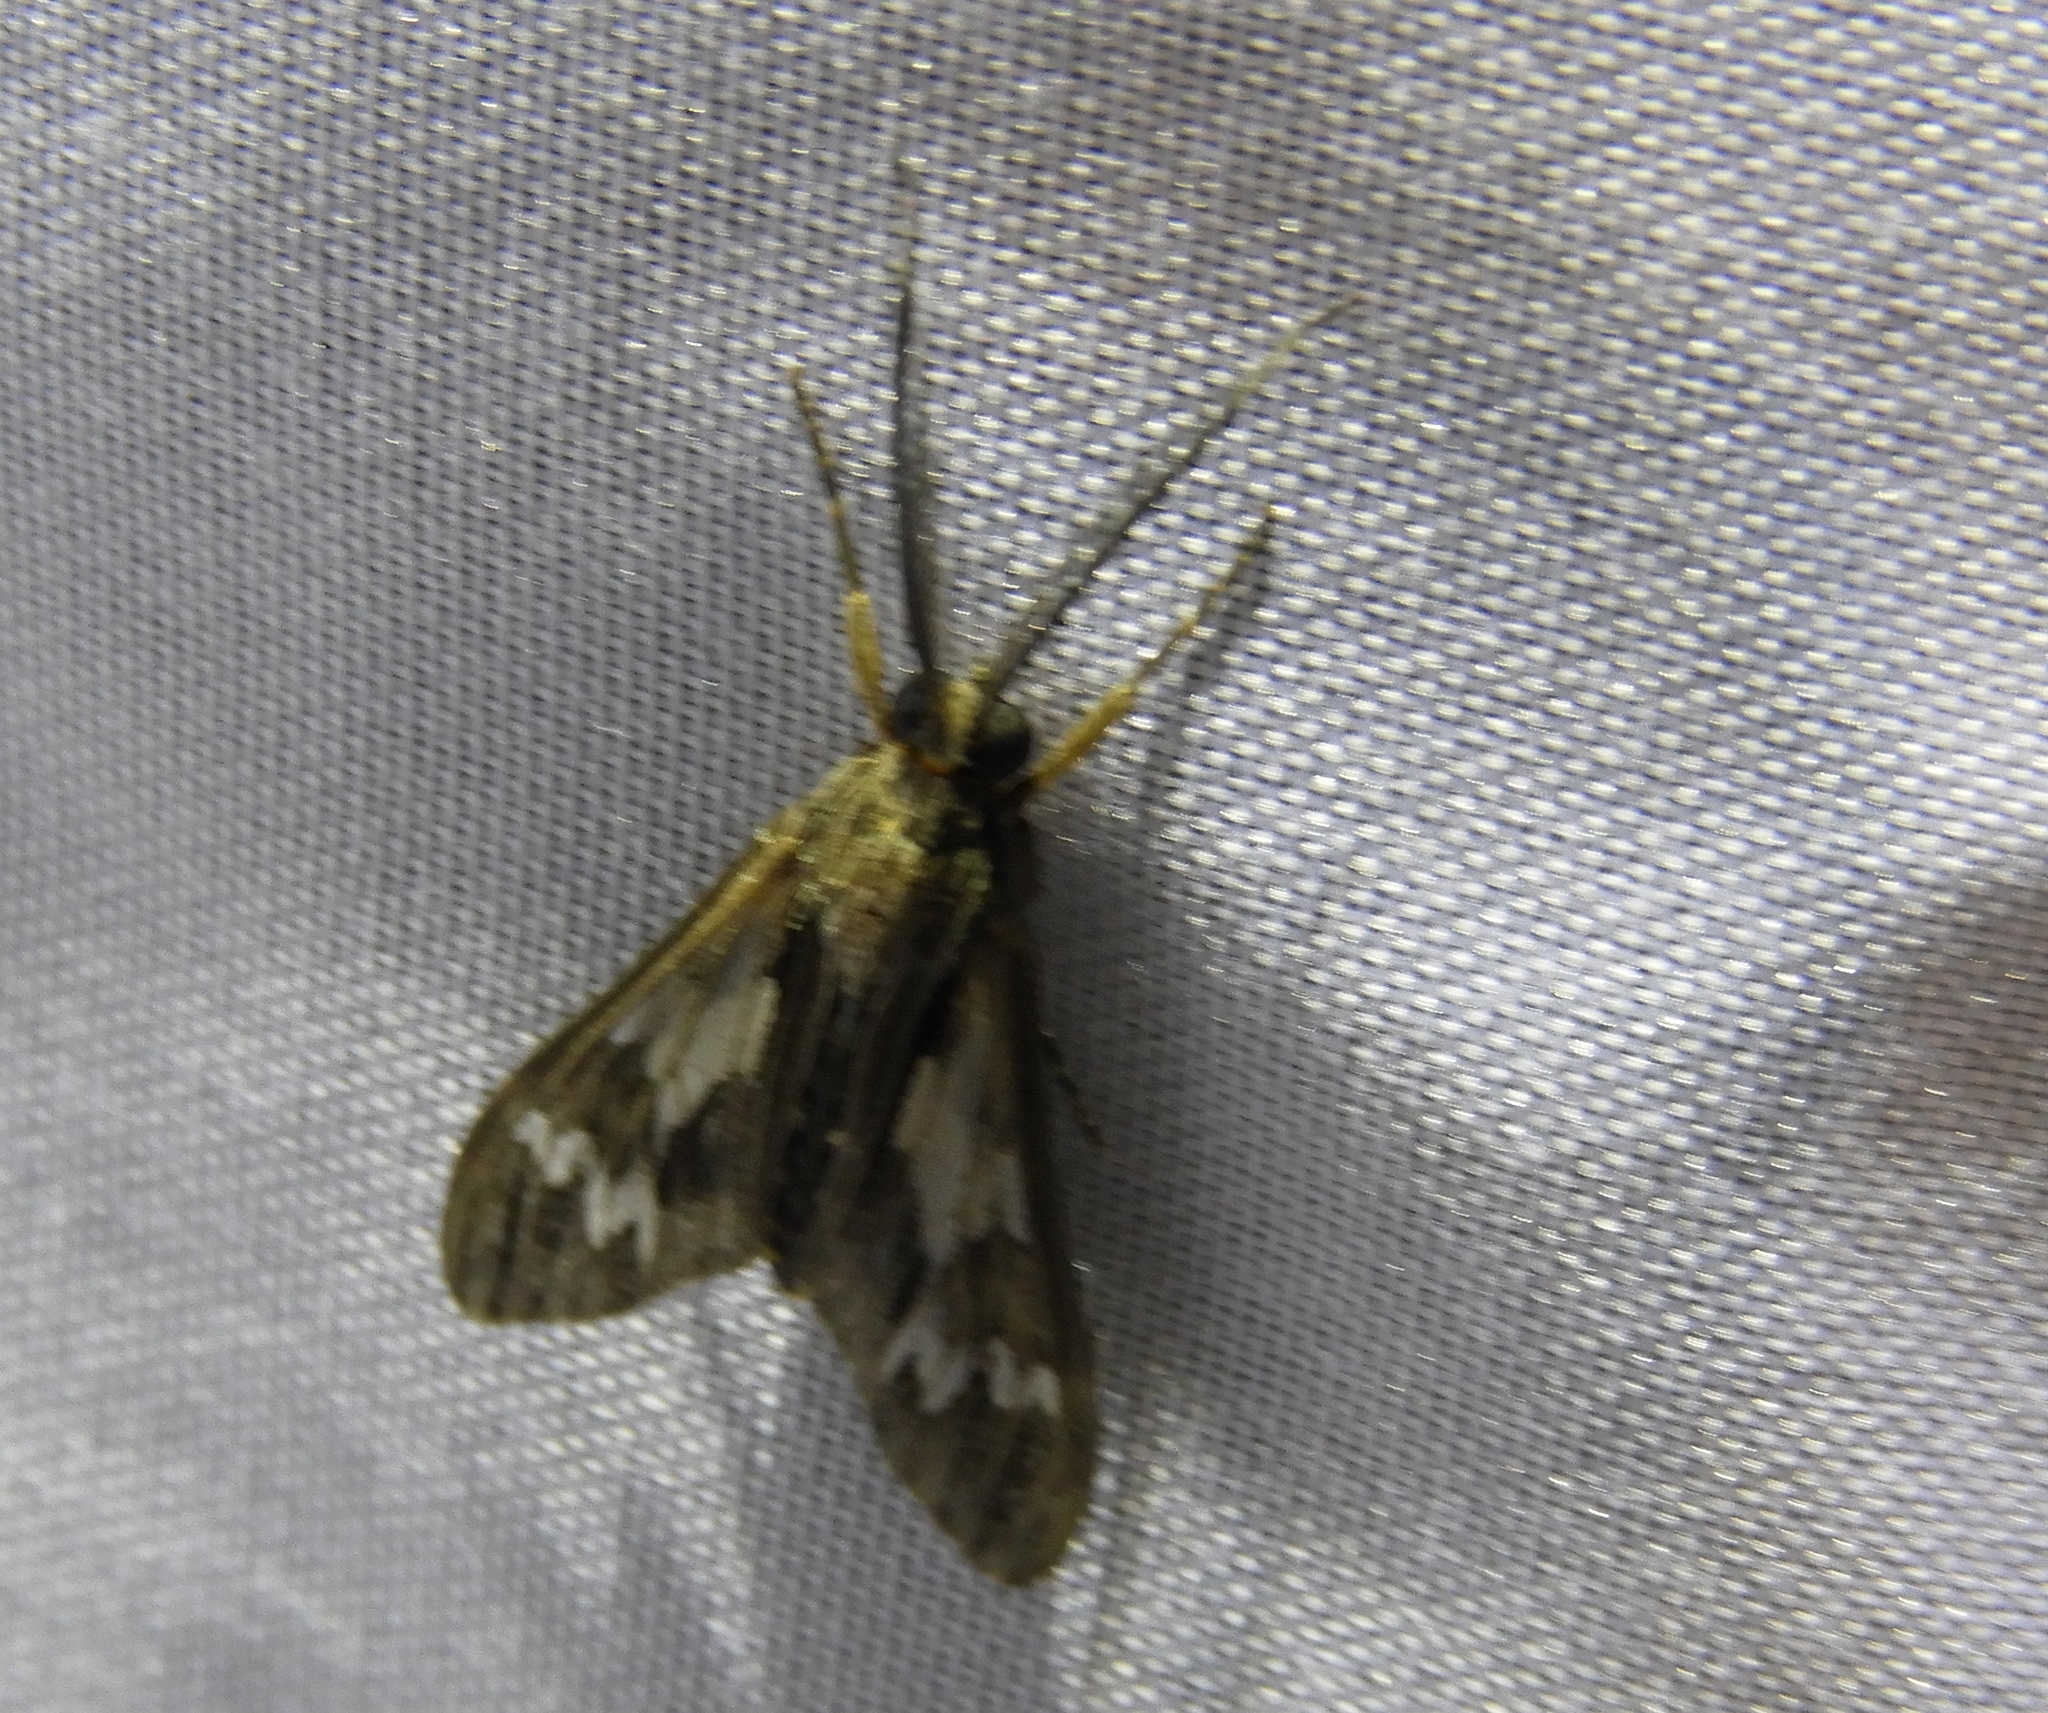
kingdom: Animalia
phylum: Arthropoda
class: Insecta
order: Lepidoptera
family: Erebidae
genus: Psilopleura
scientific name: Psilopleura
